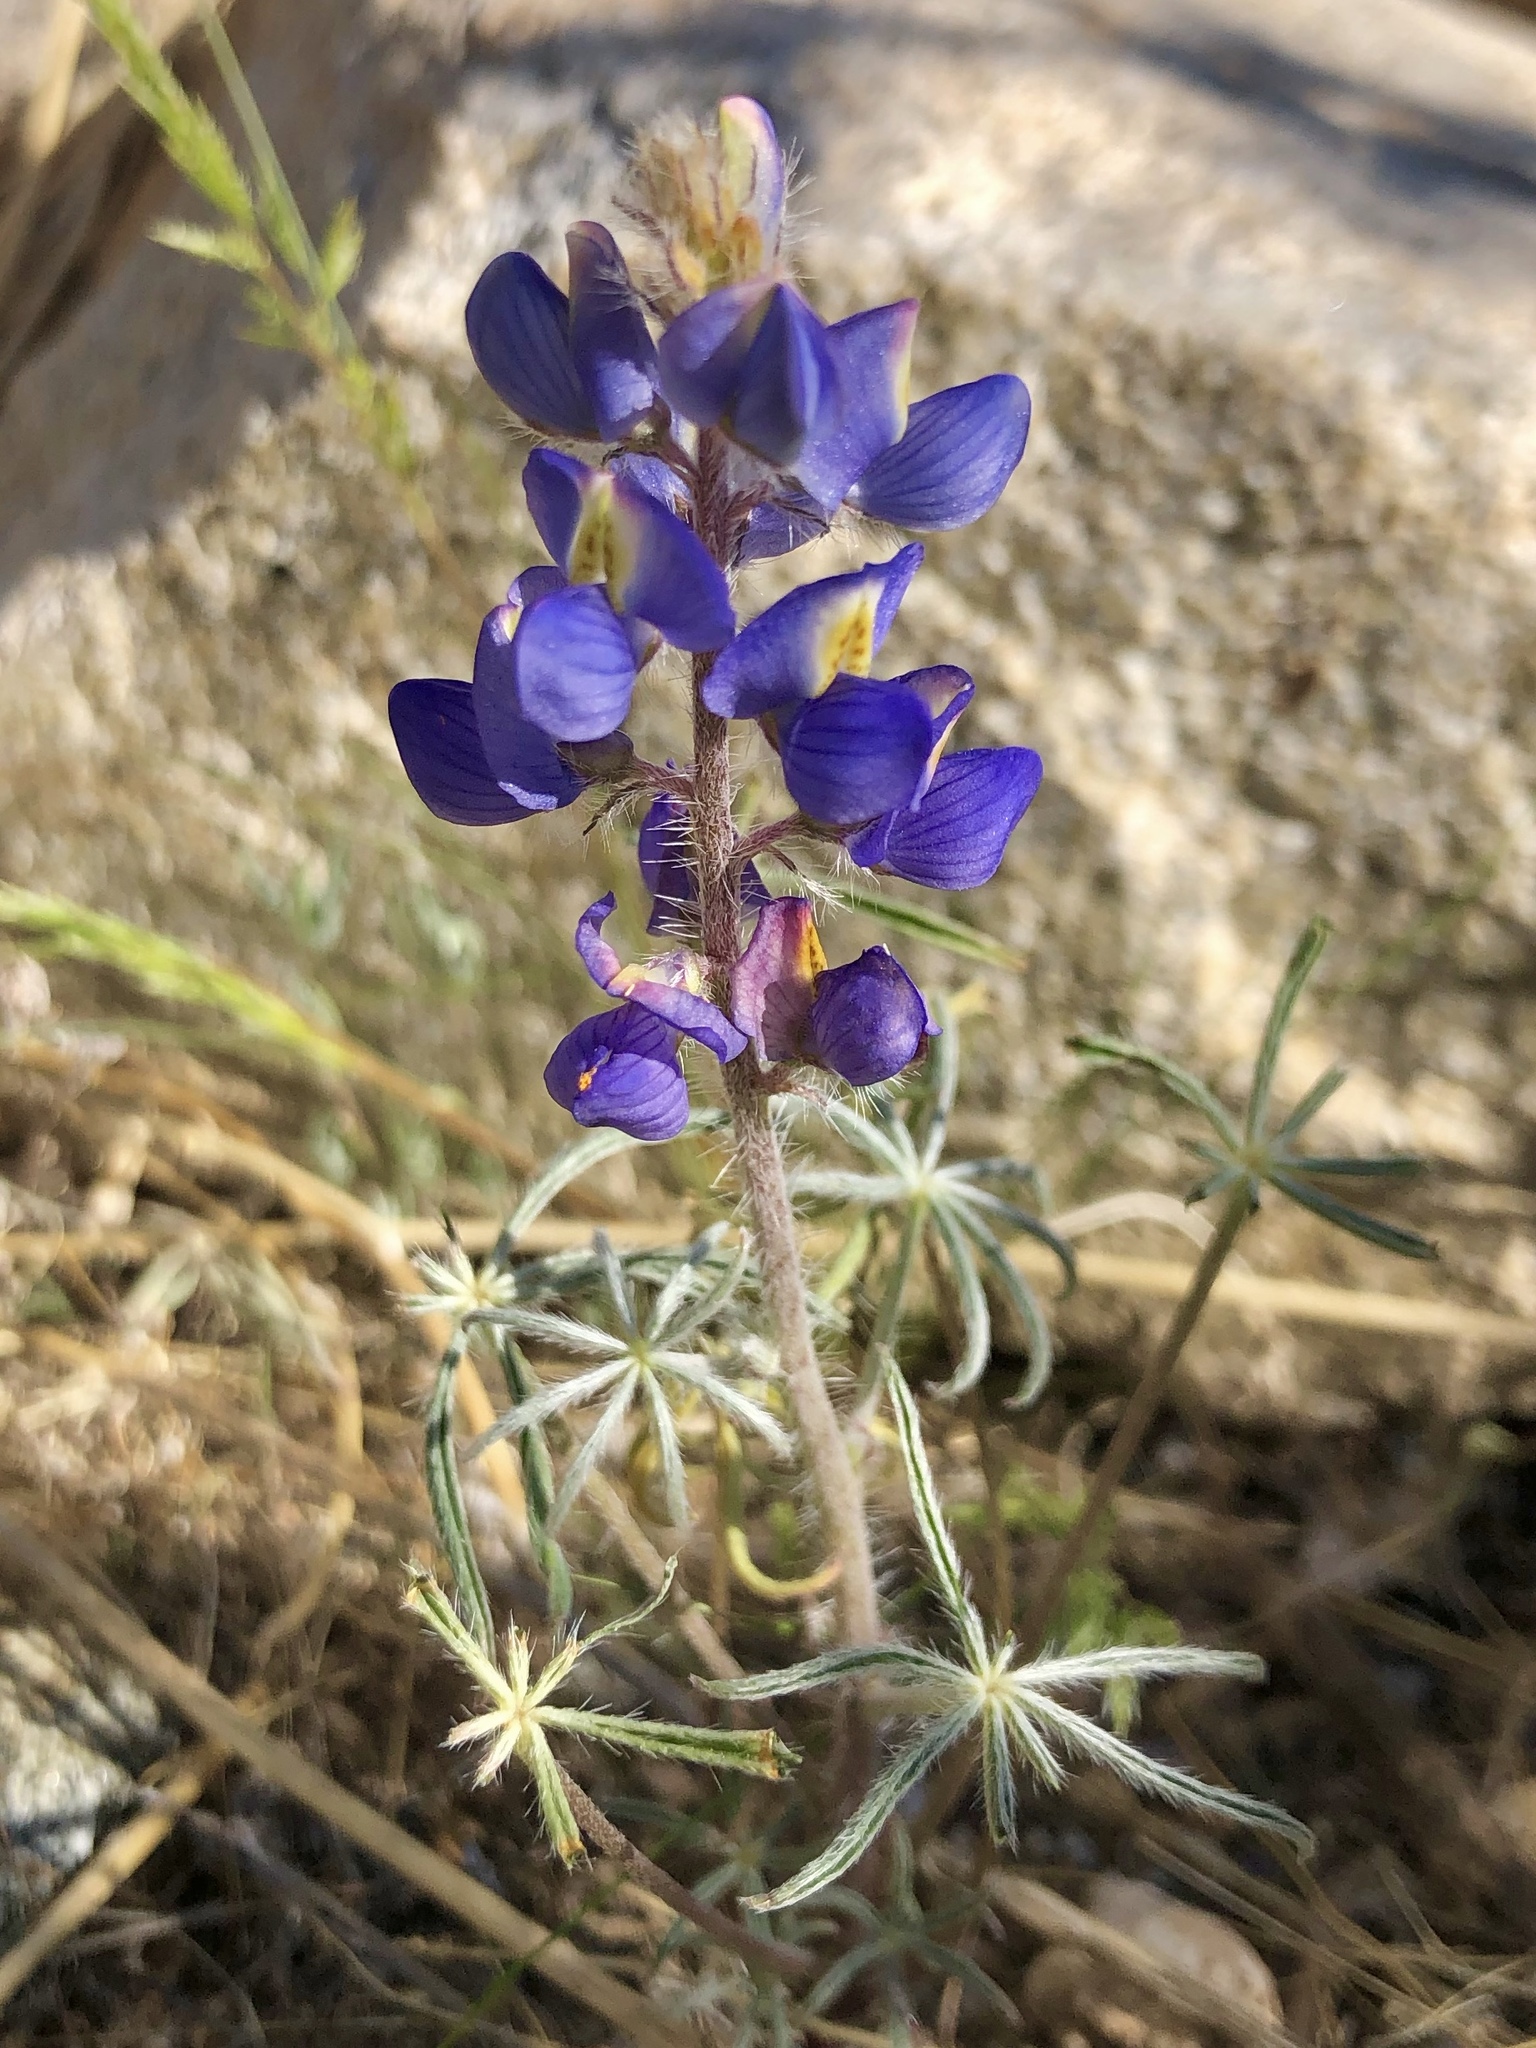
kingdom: Plantae
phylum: Tracheophyta
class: Magnoliopsida
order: Fabales
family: Fabaceae
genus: Lupinus
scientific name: Lupinus sparsiflorus
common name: Coulter's lupine
